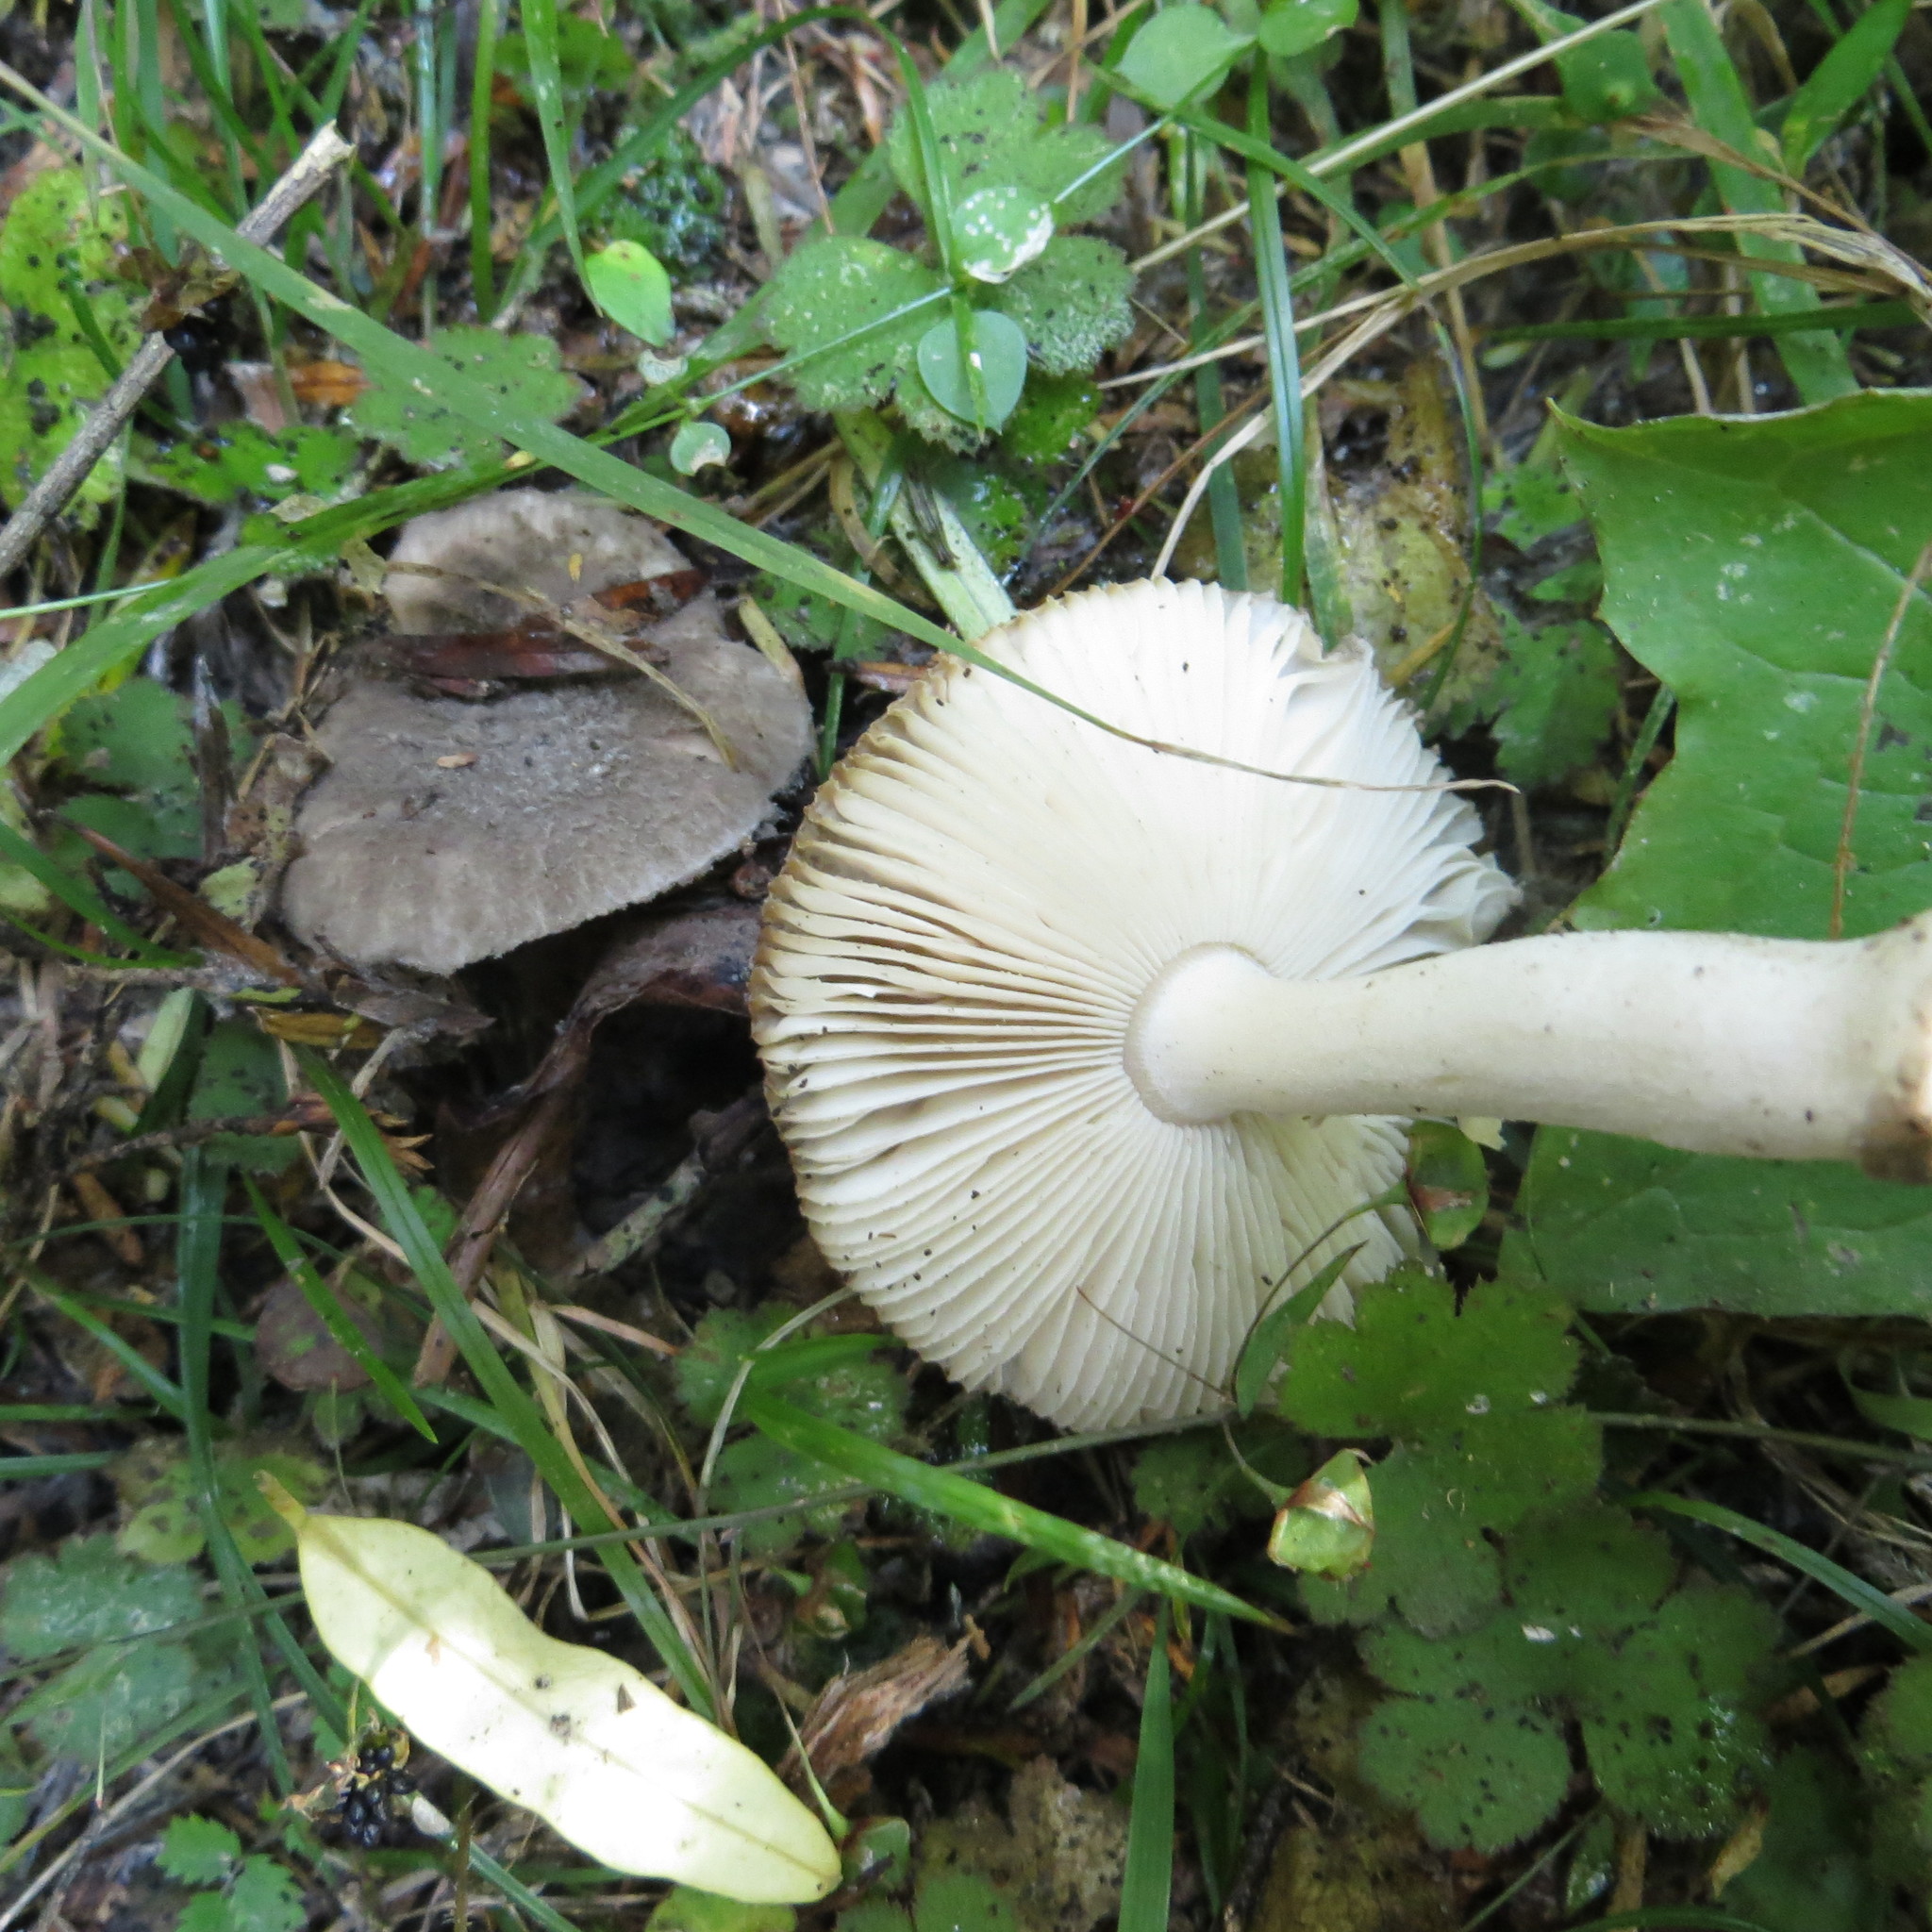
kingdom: Fungi
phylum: Basidiomycota
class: Agaricomycetes
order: Agaricales
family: Amanitaceae
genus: Amanita
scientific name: Amanita nehuta
